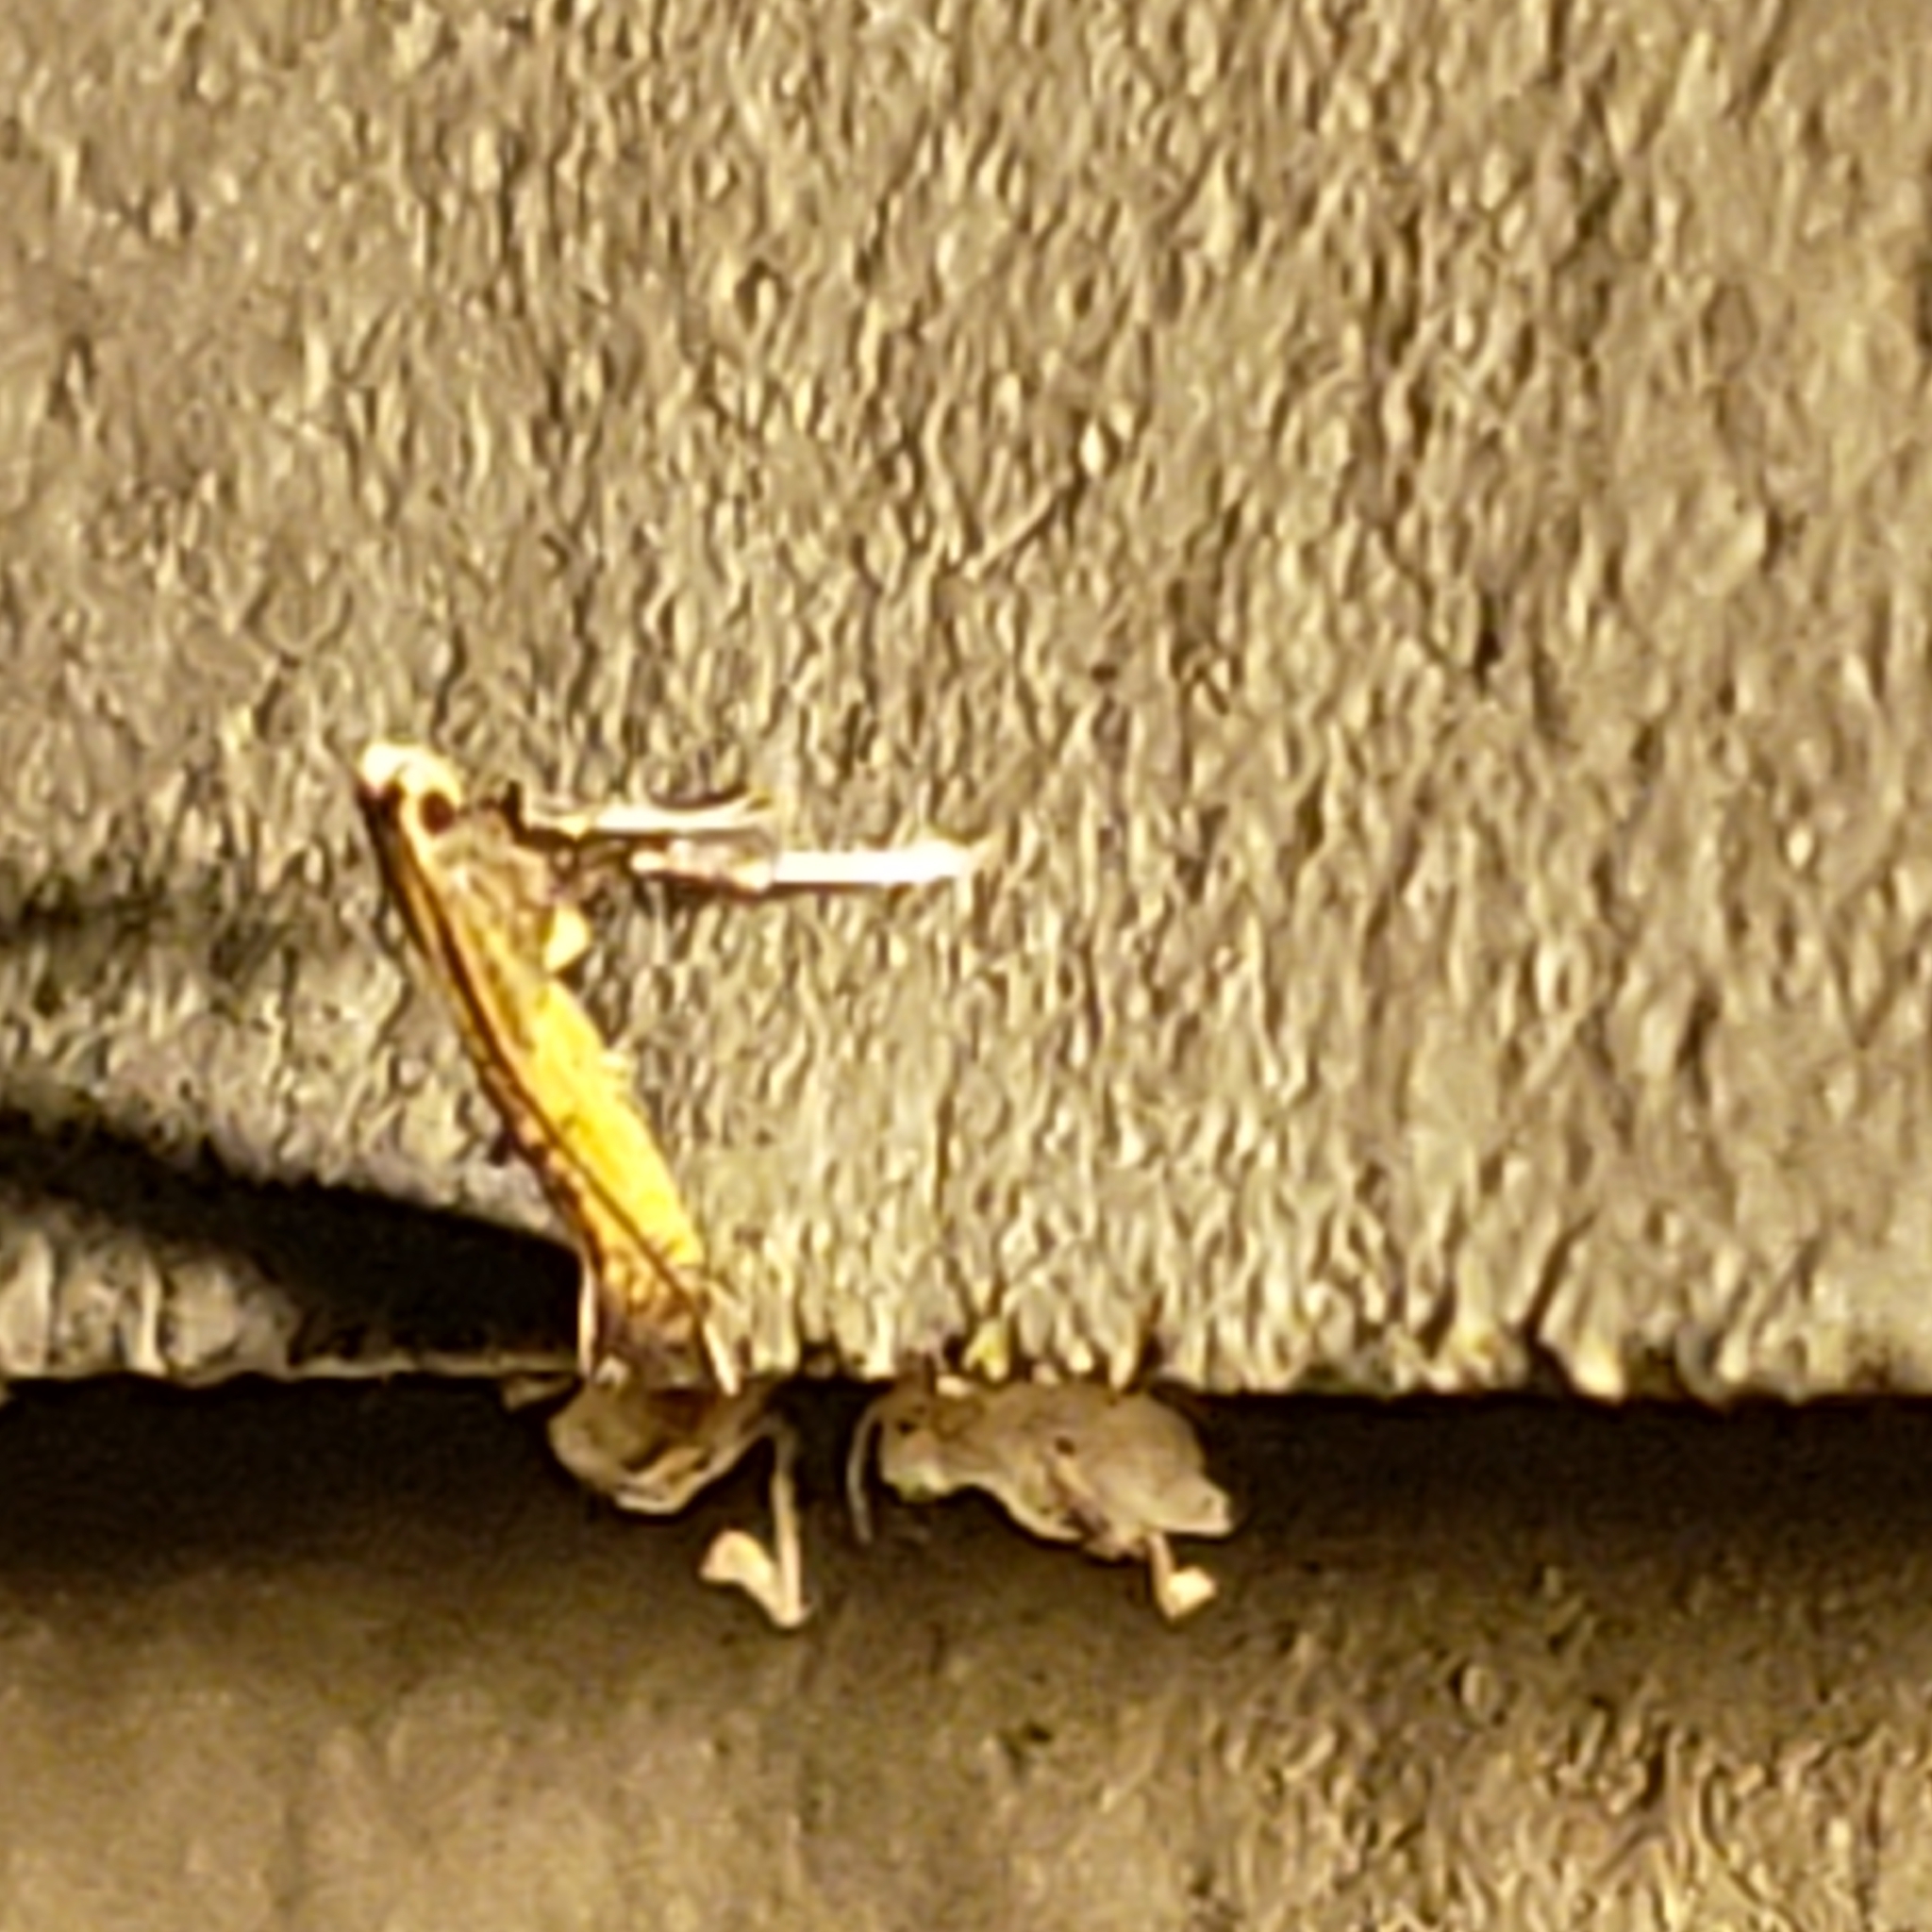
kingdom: Animalia
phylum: Arthropoda
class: Insecta
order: Lepidoptera
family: Gracillariidae
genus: Caloptilia
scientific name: Caloptilia azaleella
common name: Azalea leafminer
